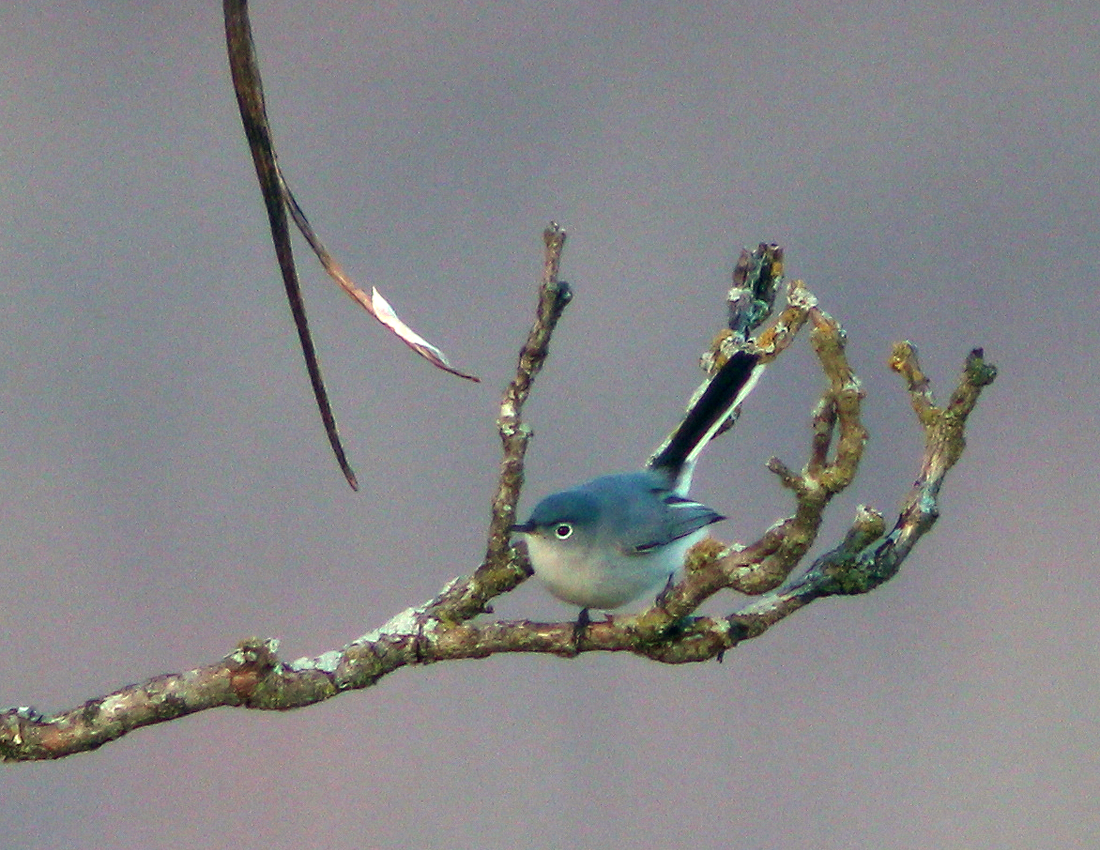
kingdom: Animalia
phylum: Chordata
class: Aves
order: Passeriformes
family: Polioptilidae
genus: Polioptila
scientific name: Polioptila caerulea
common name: Blue-gray gnatcatcher
